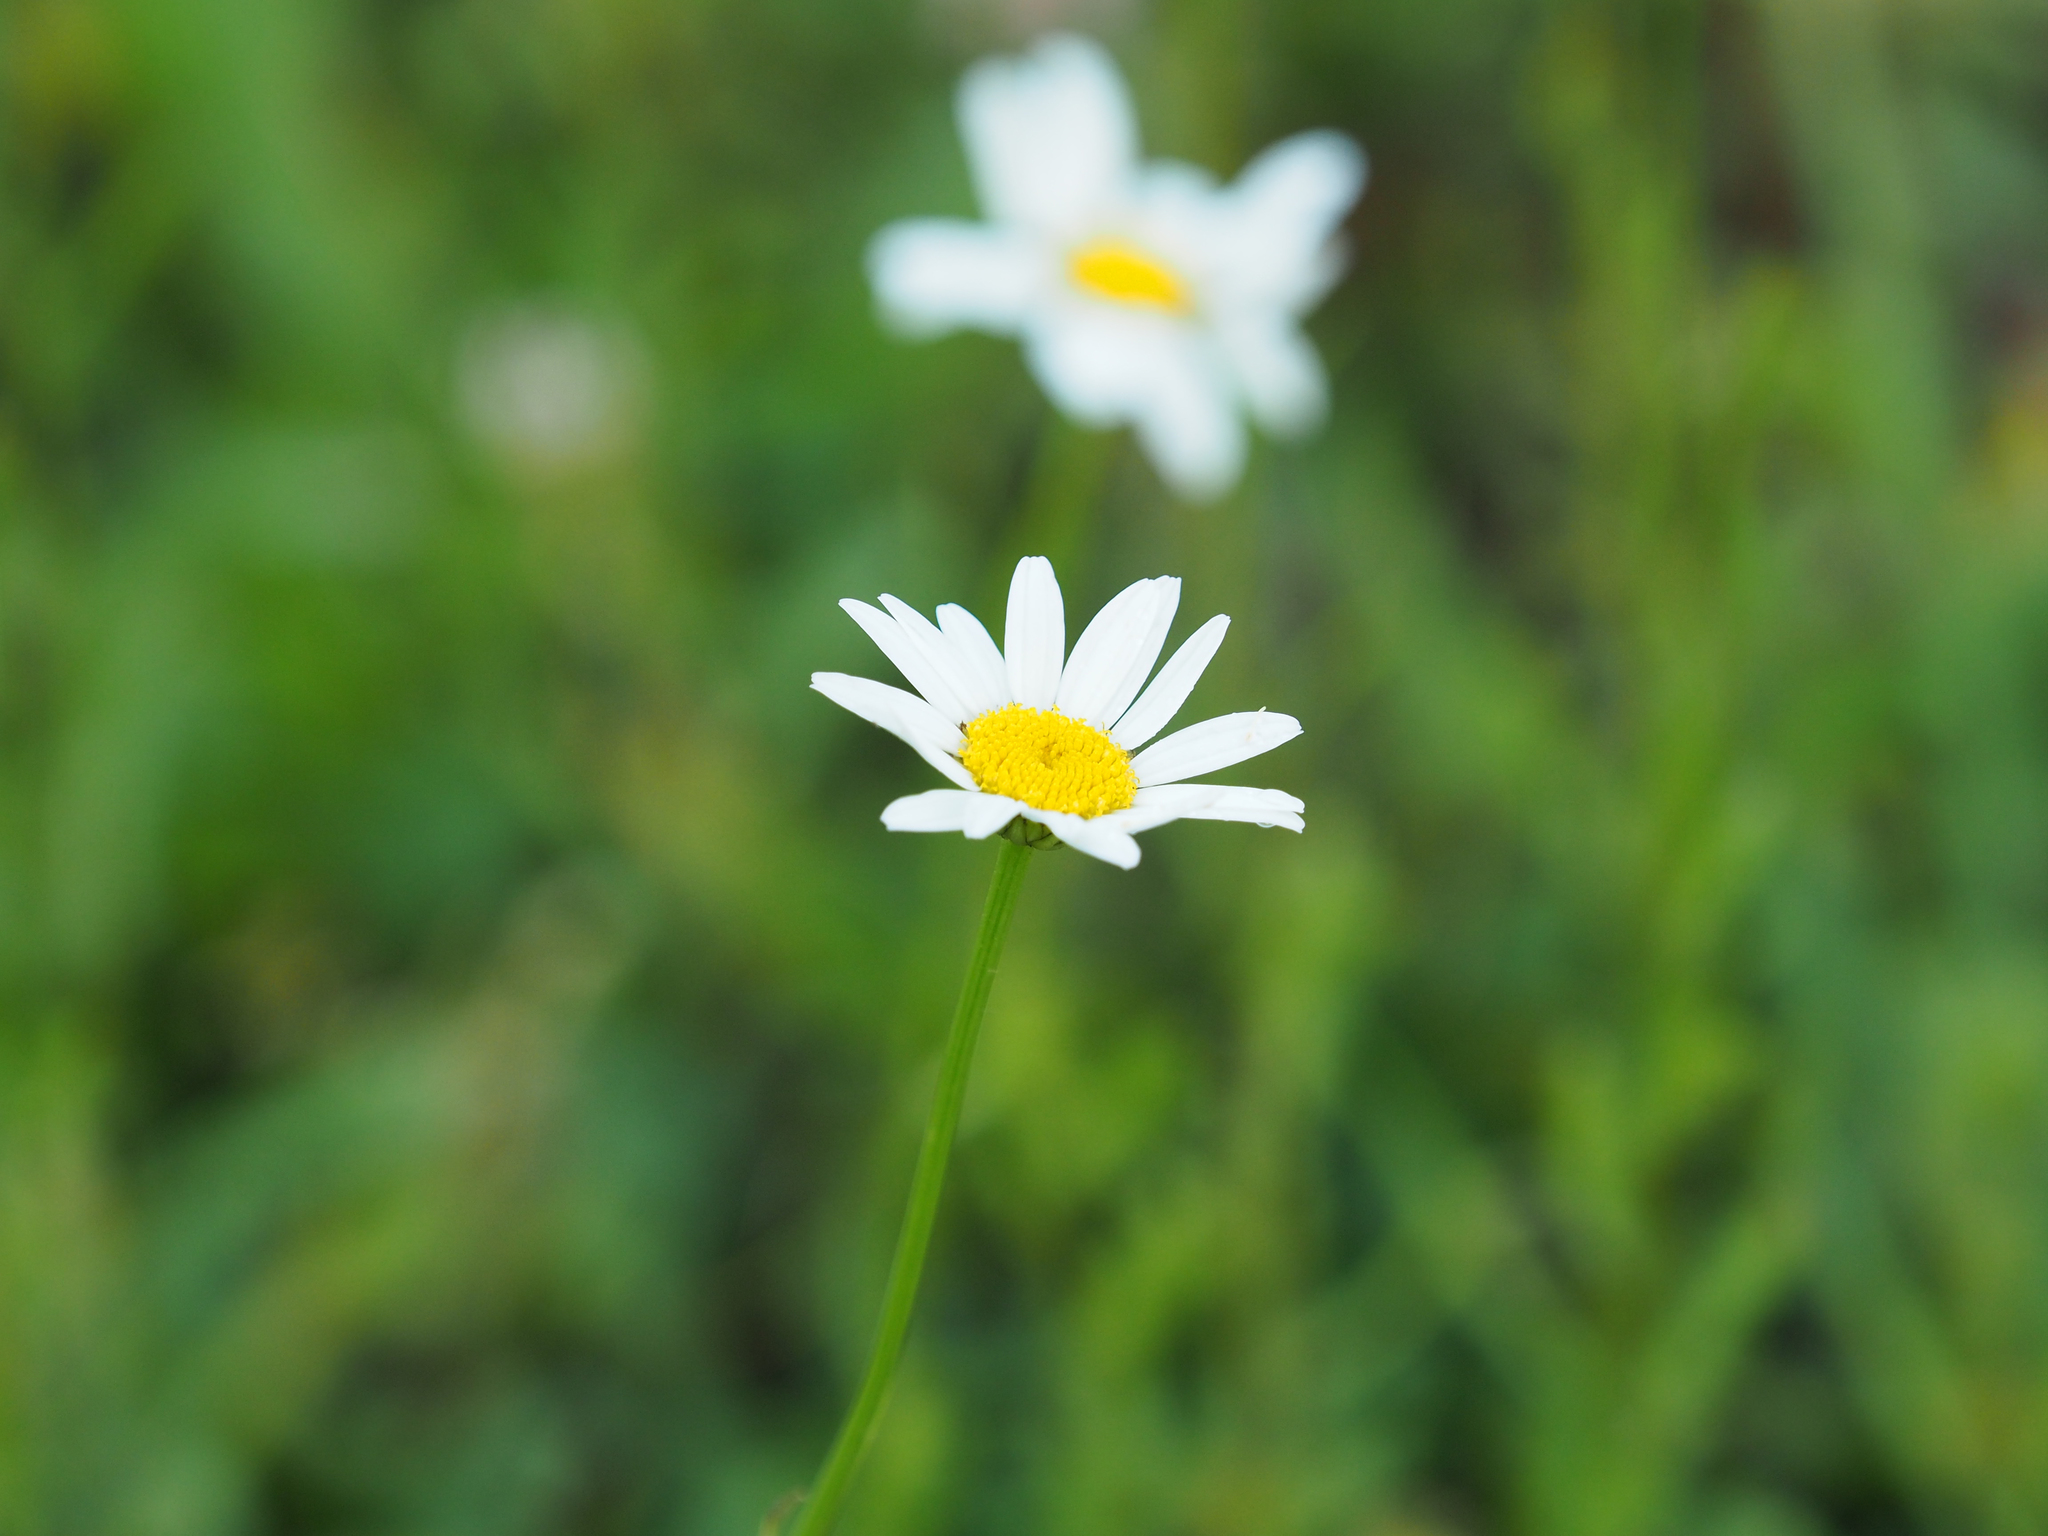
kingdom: Plantae
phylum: Tracheophyta
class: Magnoliopsida
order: Asterales
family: Asteraceae
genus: Leucanthemum
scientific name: Leucanthemum vulgare
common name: Oxeye daisy
